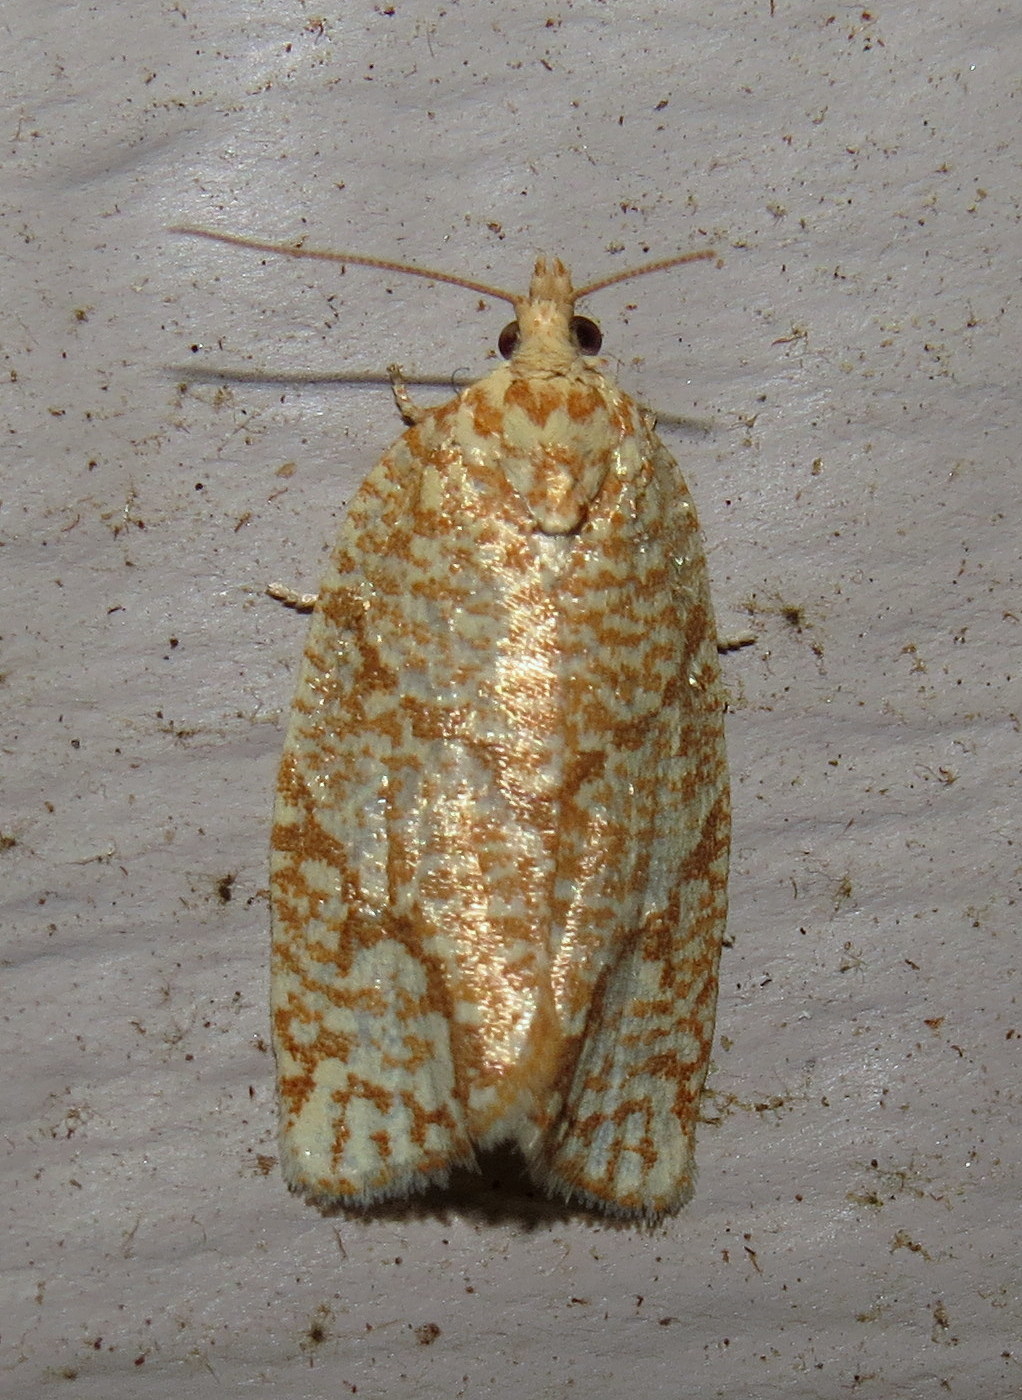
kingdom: Animalia
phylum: Arthropoda
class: Insecta
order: Lepidoptera
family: Tortricidae
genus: Argyrotaenia
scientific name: Argyrotaenia quercifoliana
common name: Yellow-winged oak leafroller moth
